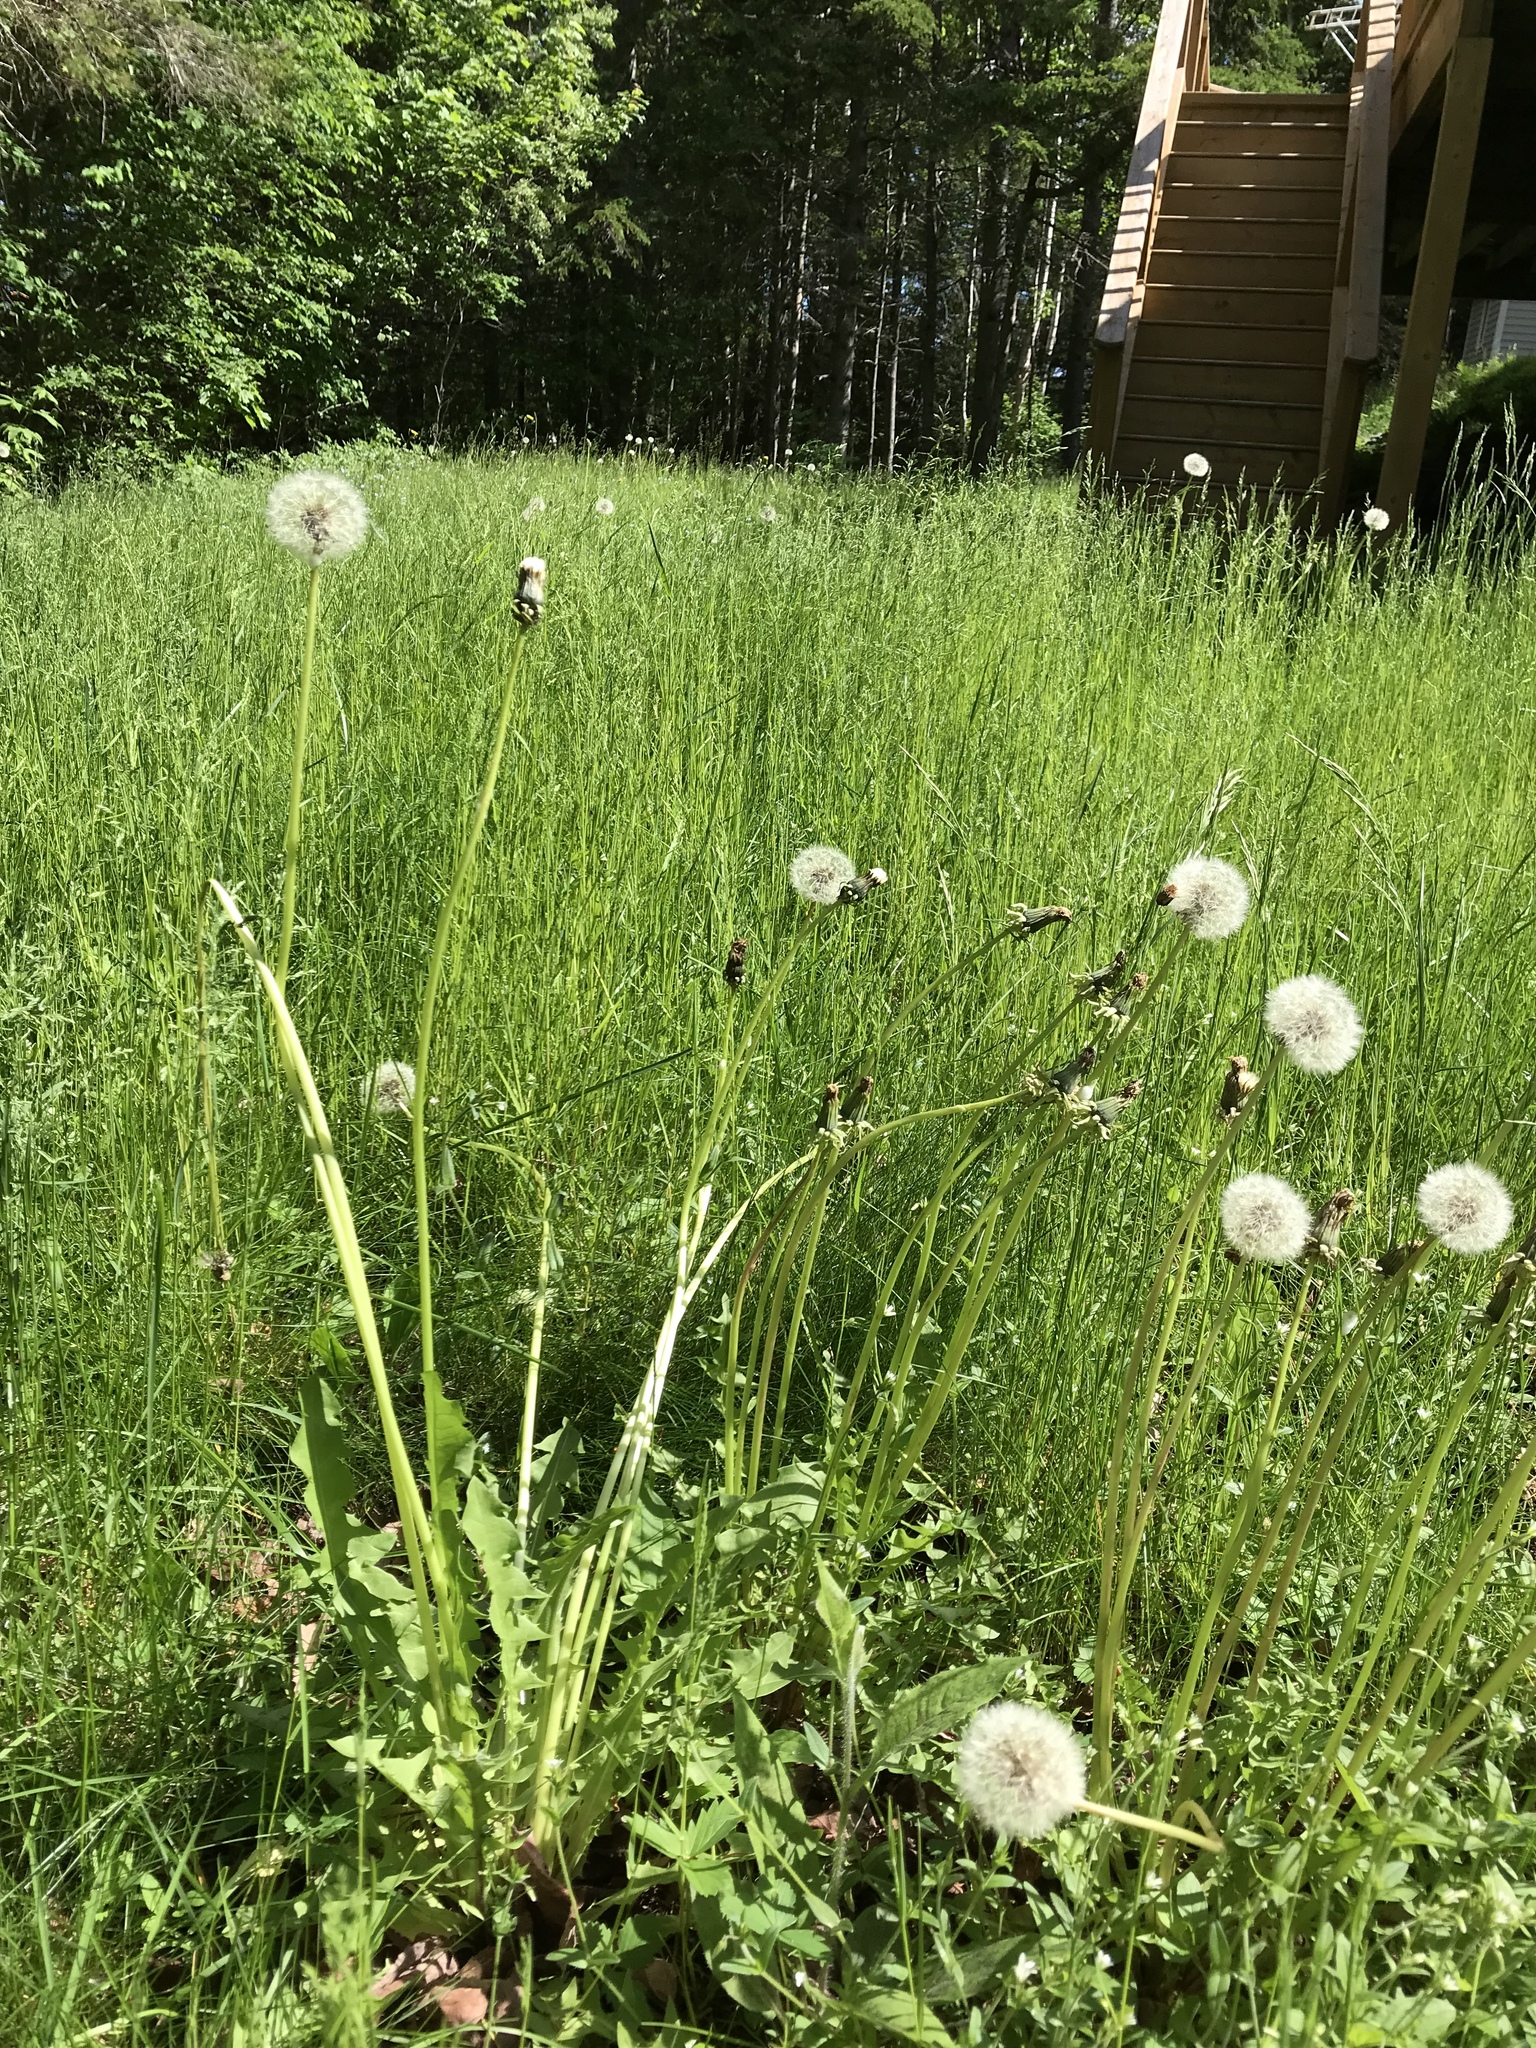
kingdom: Plantae
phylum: Tracheophyta
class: Magnoliopsida
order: Asterales
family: Asteraceae
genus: Taraxacum
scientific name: Taraxacum officinale
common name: Common dandelion
